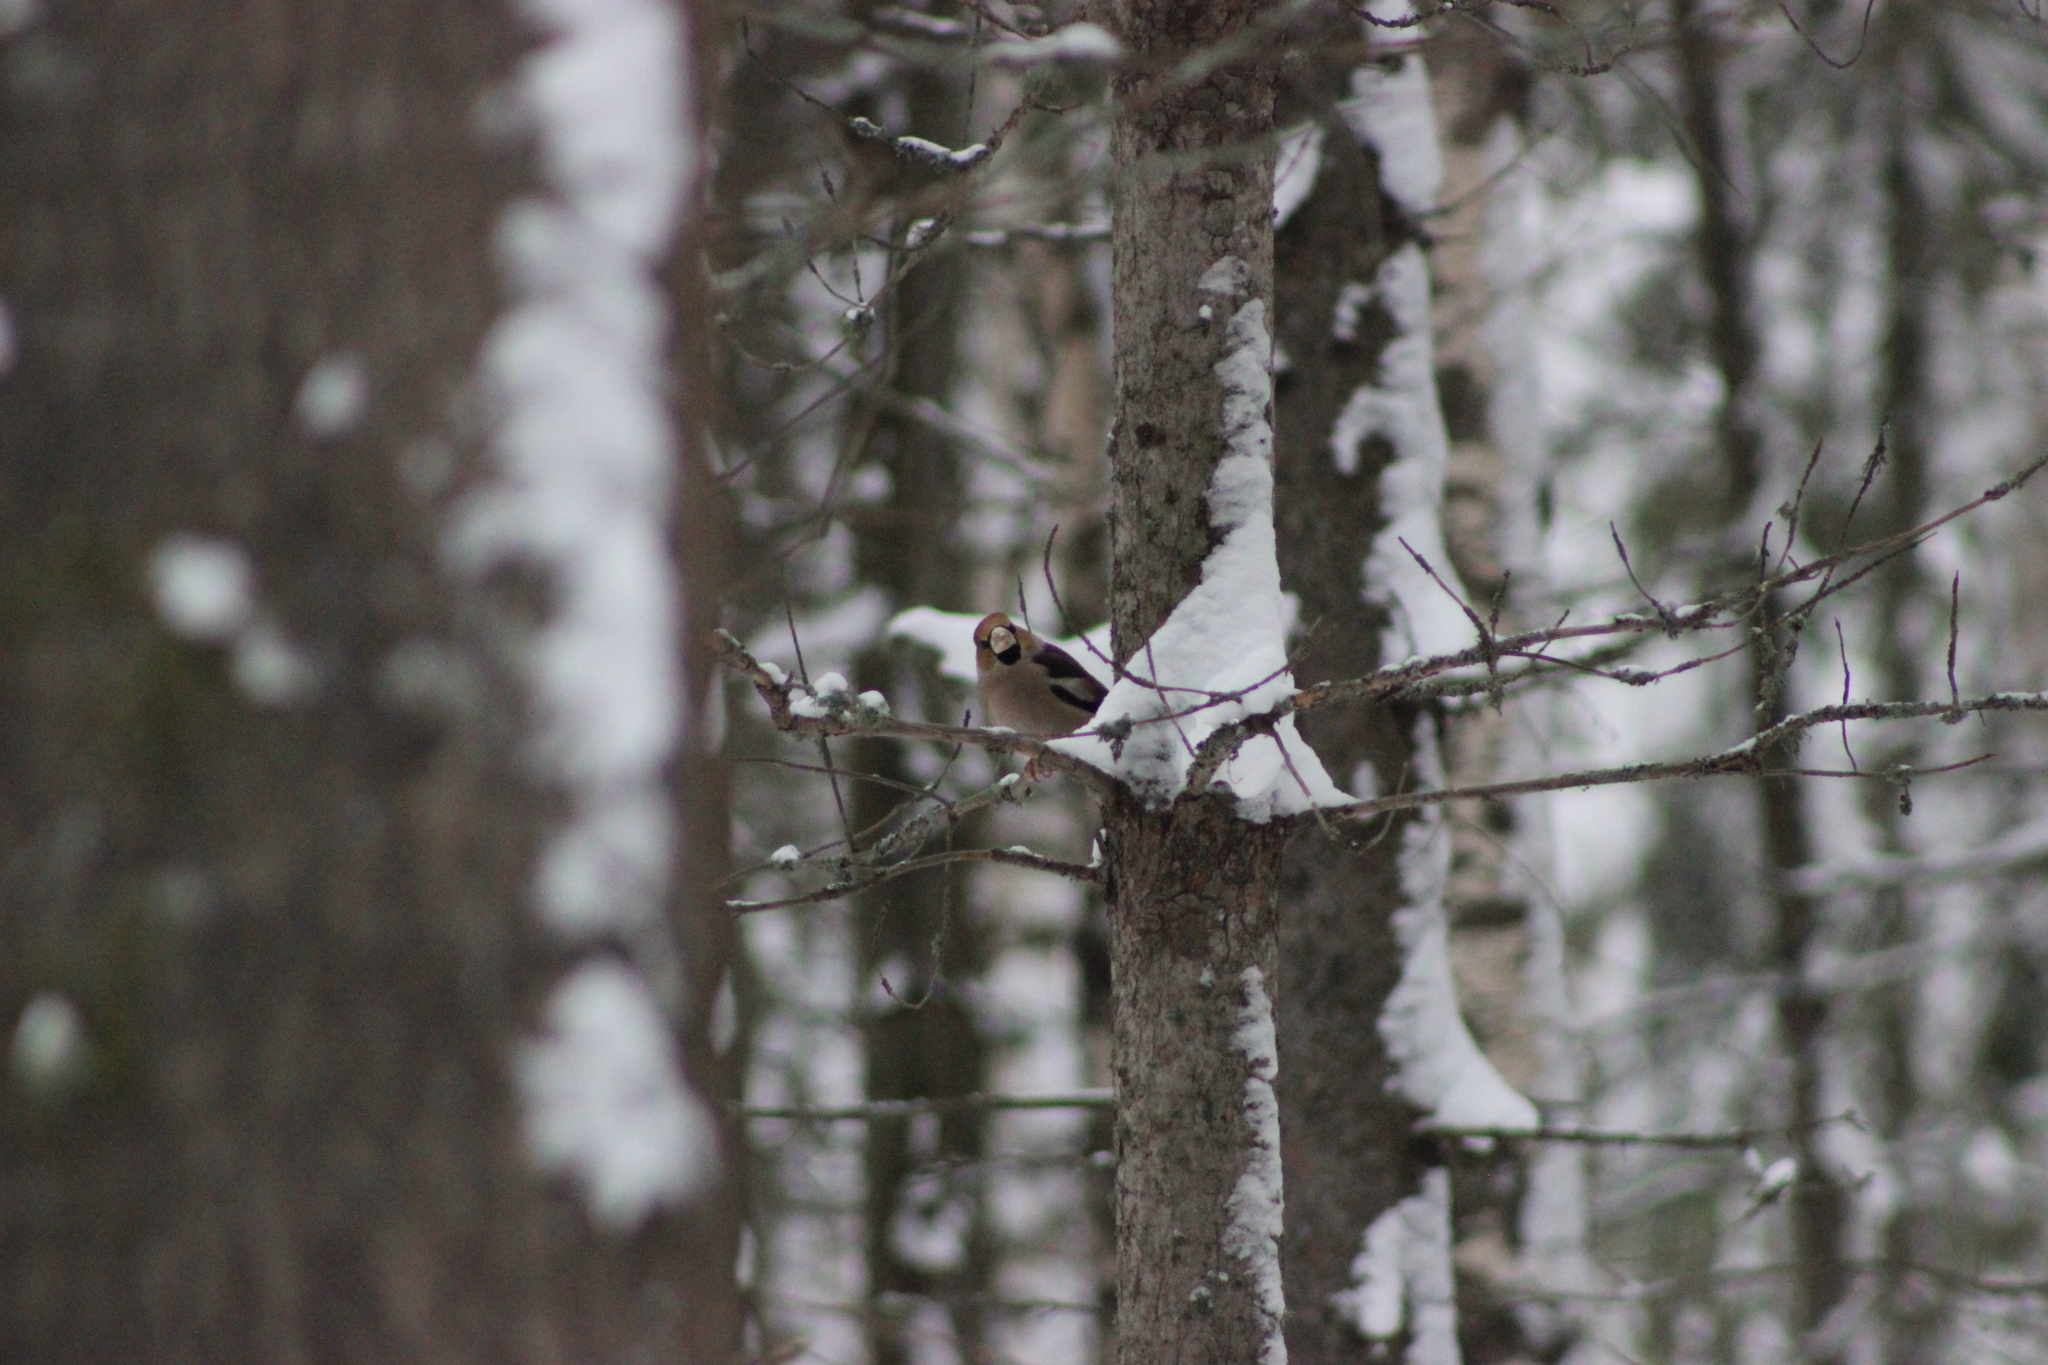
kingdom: Animalia
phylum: Chordata
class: Aves
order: Passeriformes
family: Fringillidae
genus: Coccothraustes
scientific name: Coccothraustes coccothraustes
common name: Hawfinch
